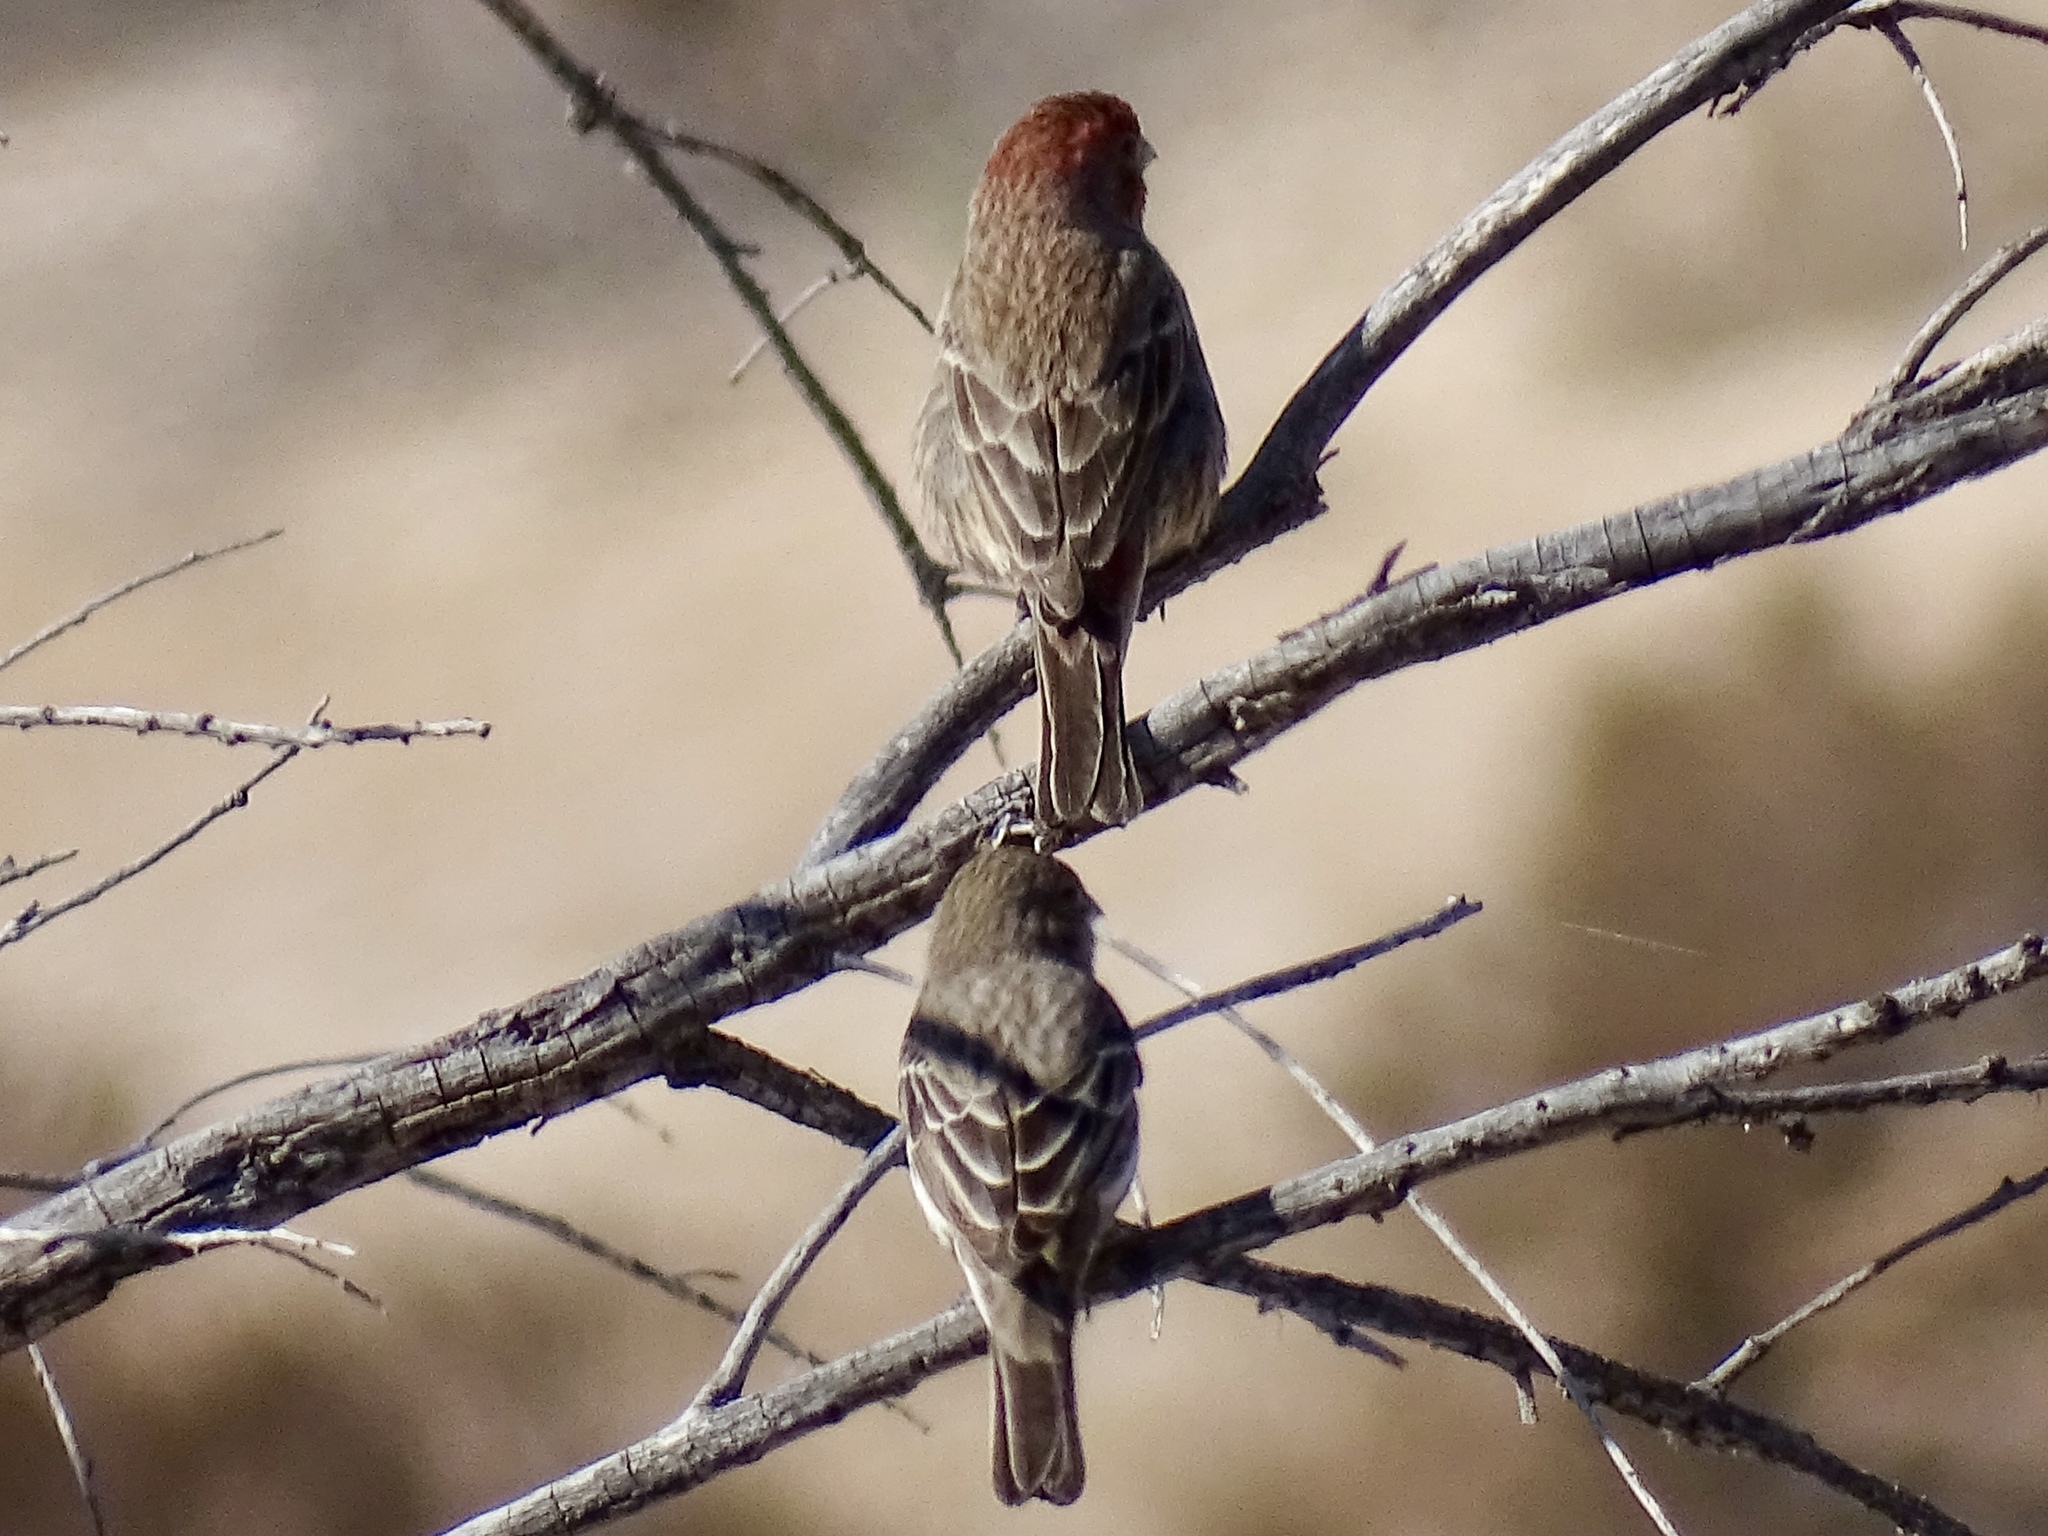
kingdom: Animalia
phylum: Chordata
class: Aves
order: Passeriformes
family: Fringillidae
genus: Haemorhous
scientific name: Haemorhous mexicanus
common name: House finch
